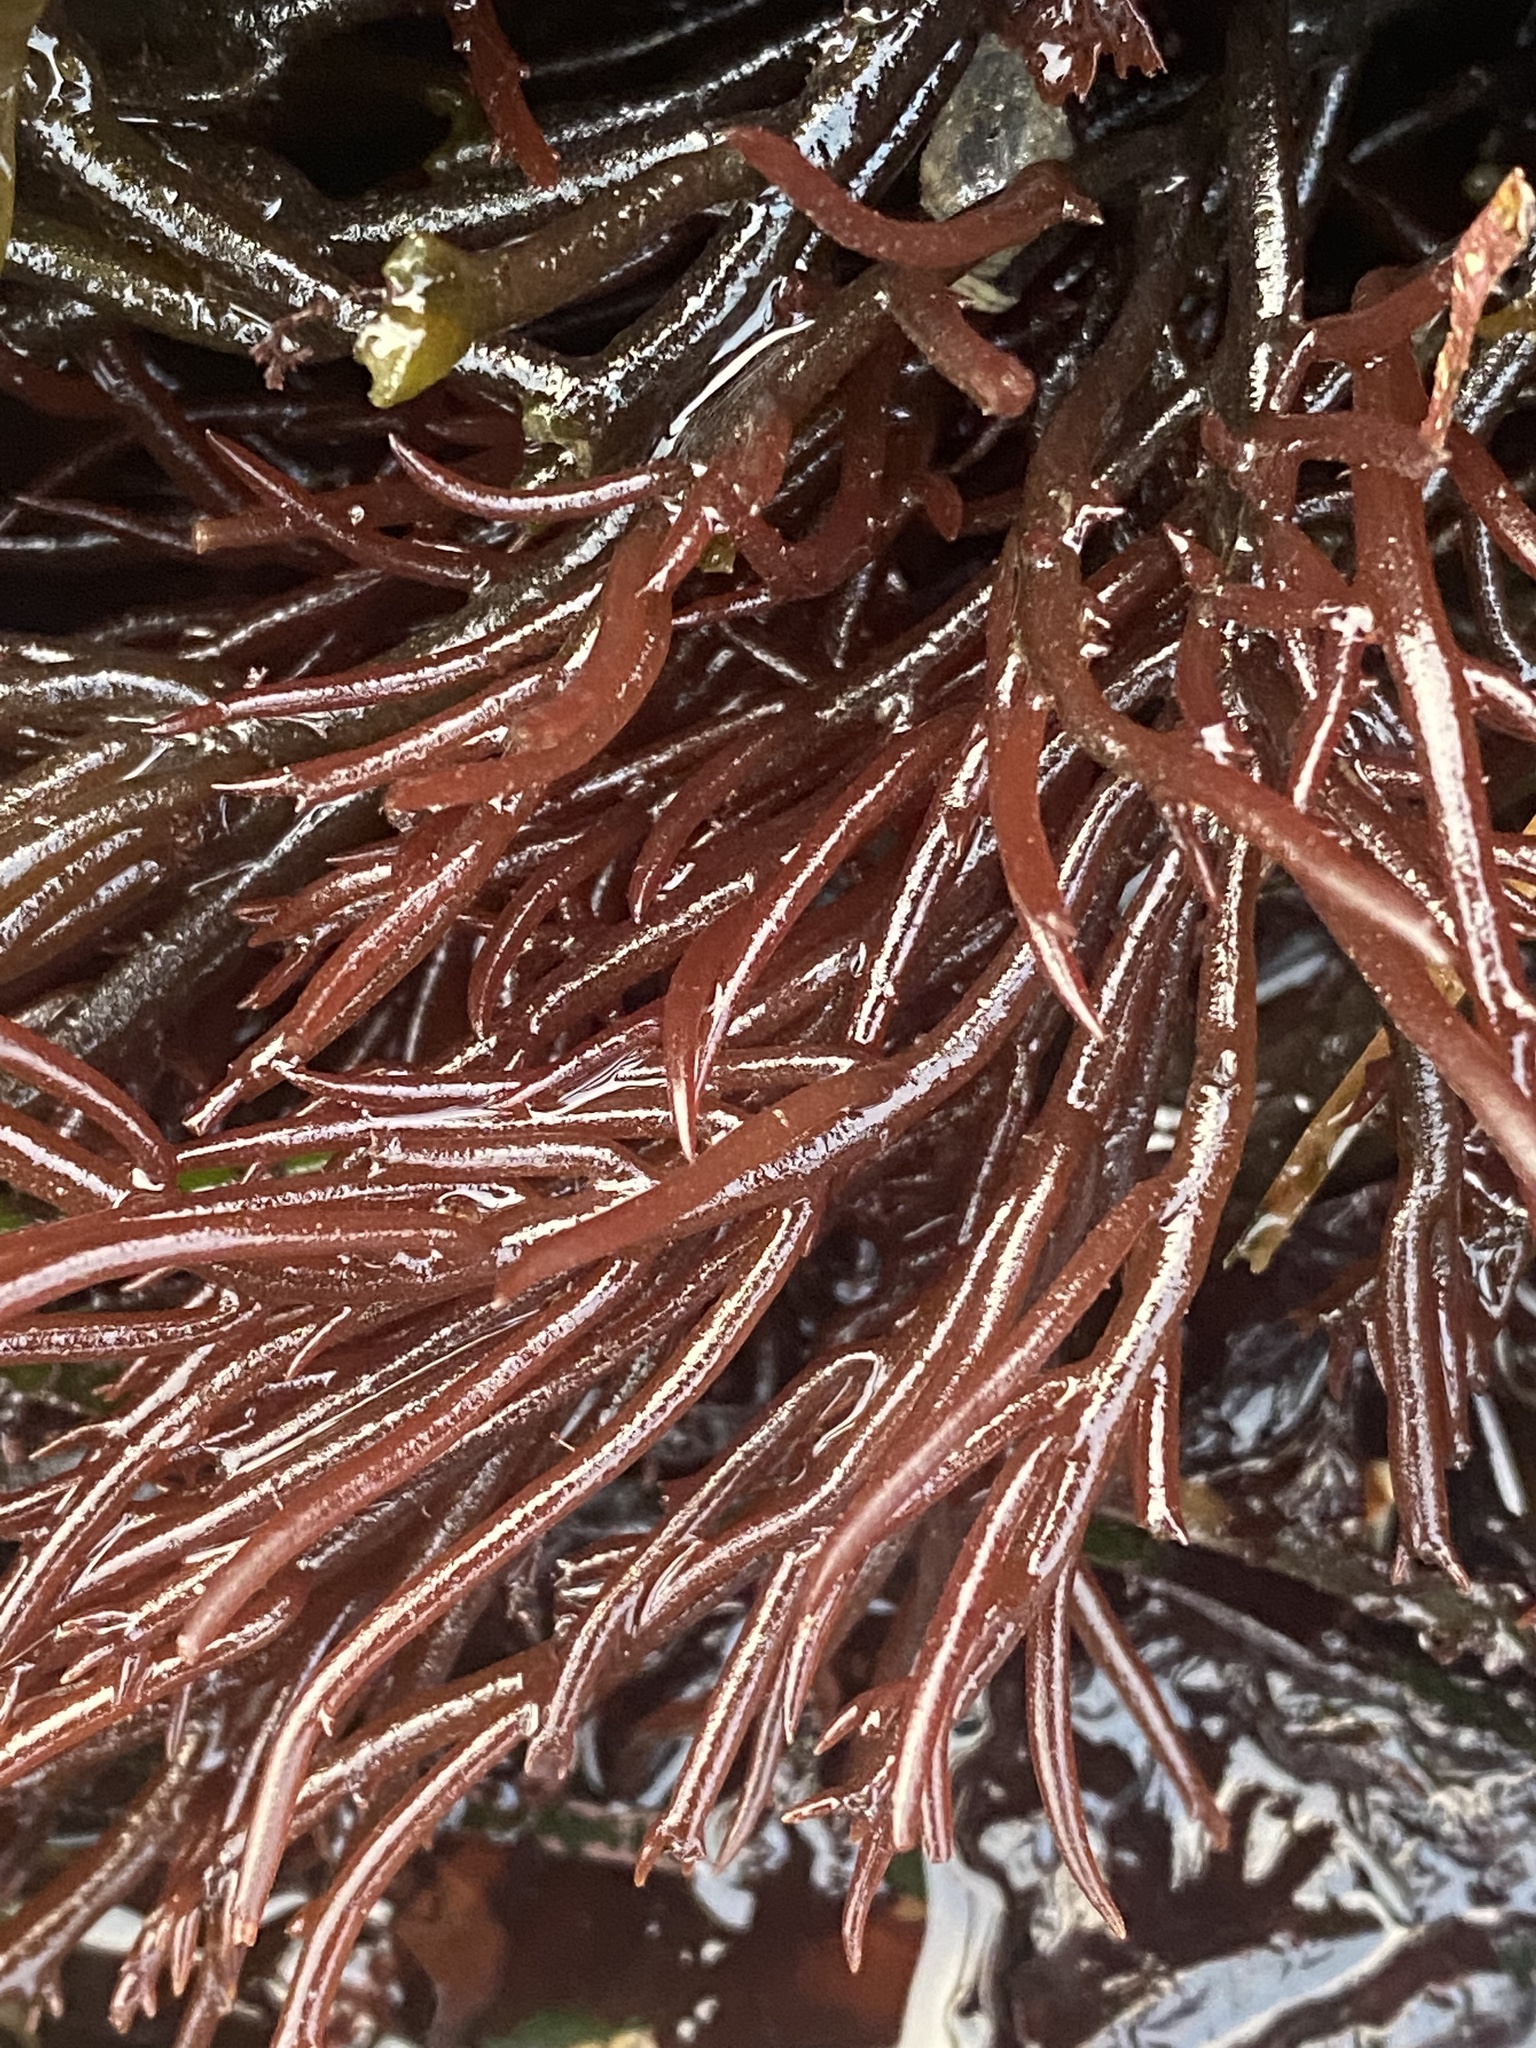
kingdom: Plantae
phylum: Rhodophyta
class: Florideophyceae
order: Gigartinales
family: Solieriaceae
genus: Sarcodiotheca
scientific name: Sarcodiotheca gaudichaudii
